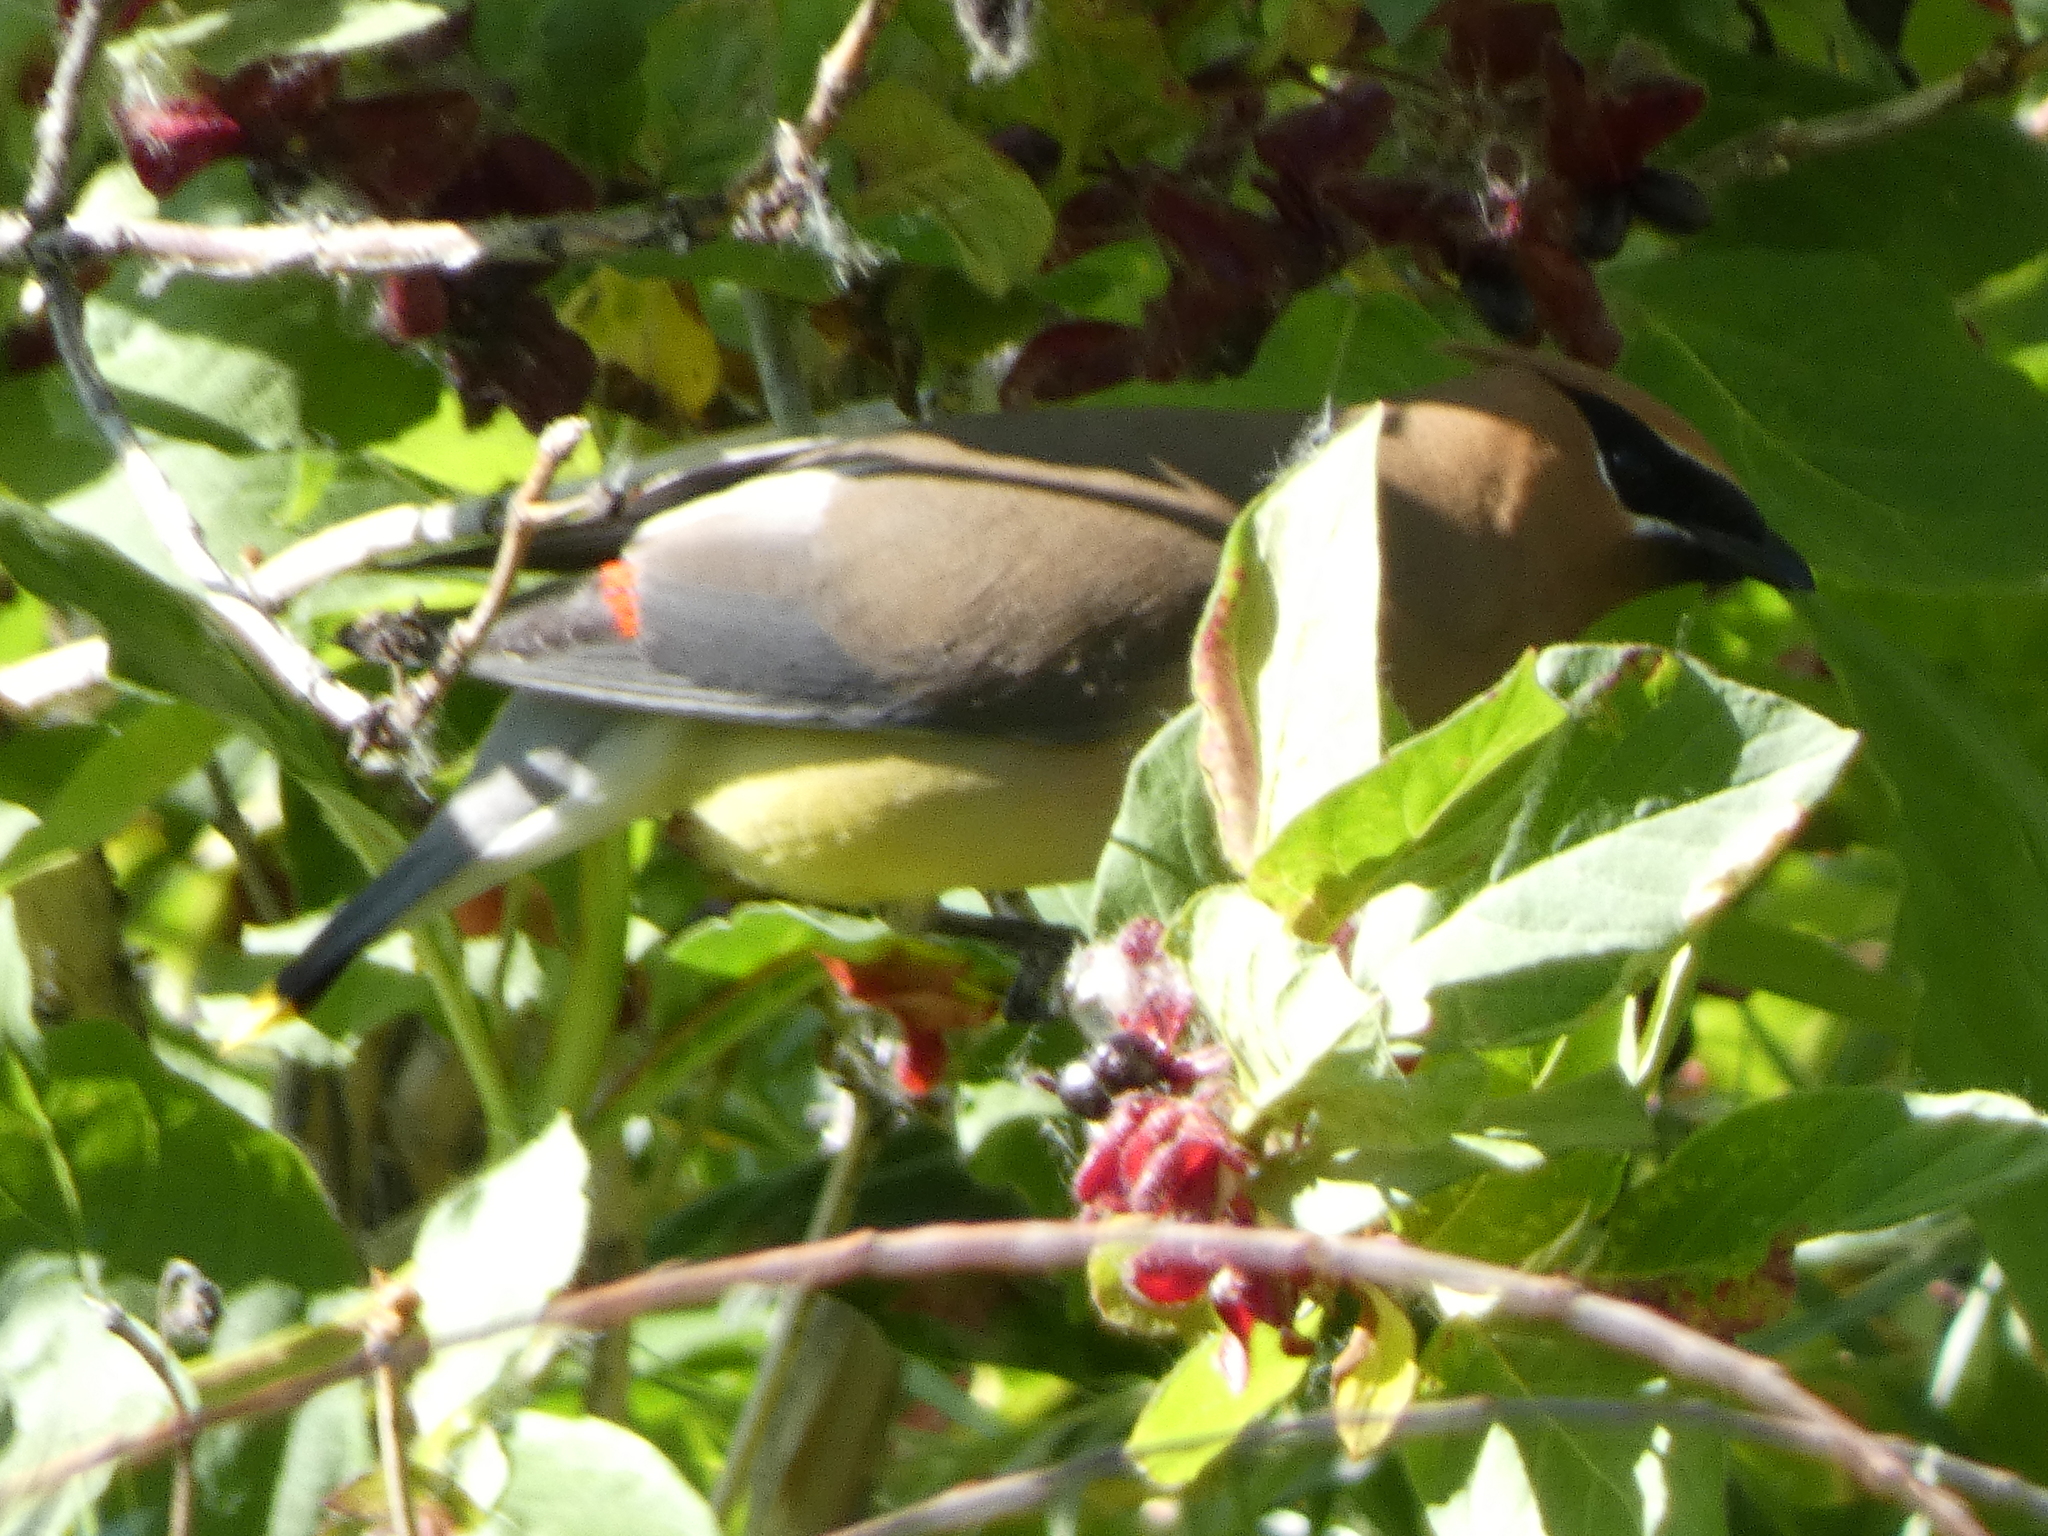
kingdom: Animalia
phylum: Chordata
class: Aves
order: Passeriformes
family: Bombycillidae
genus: Bombycilla
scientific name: Bombycilla cedrorum
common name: Cedar waxwing
